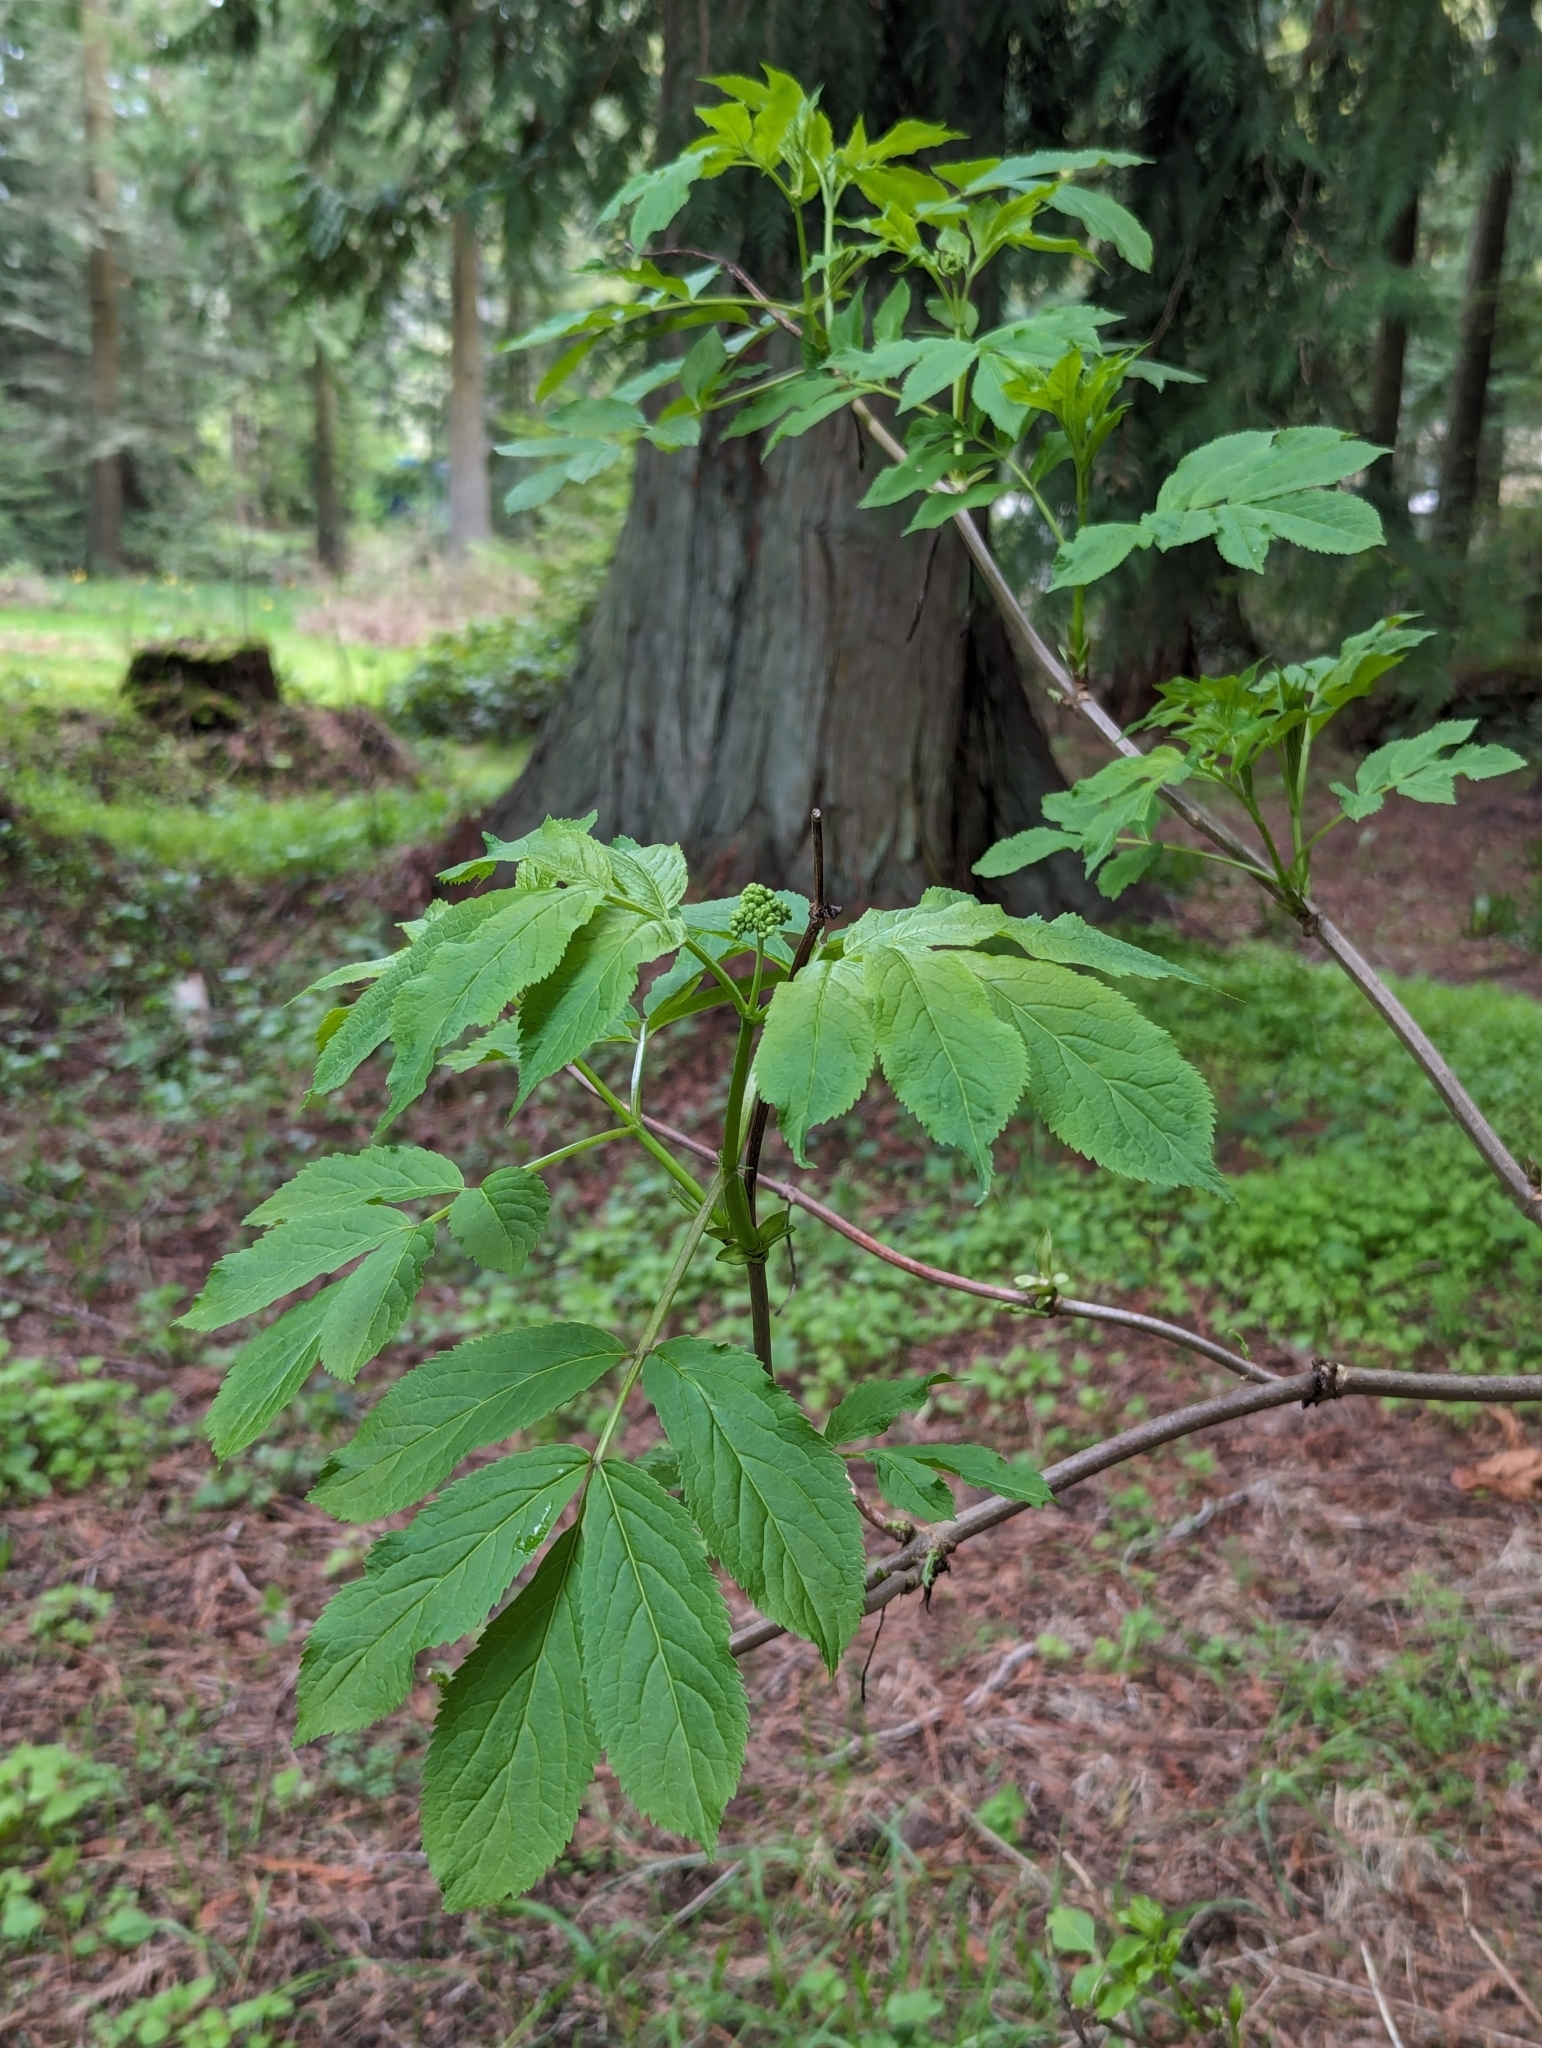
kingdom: Plantae
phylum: Tracheophyta
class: Magnoliopsida
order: Dipsacales
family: Viburnaceae
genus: Sambucus
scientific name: Sambucus racemosa
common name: Red-berried elder
